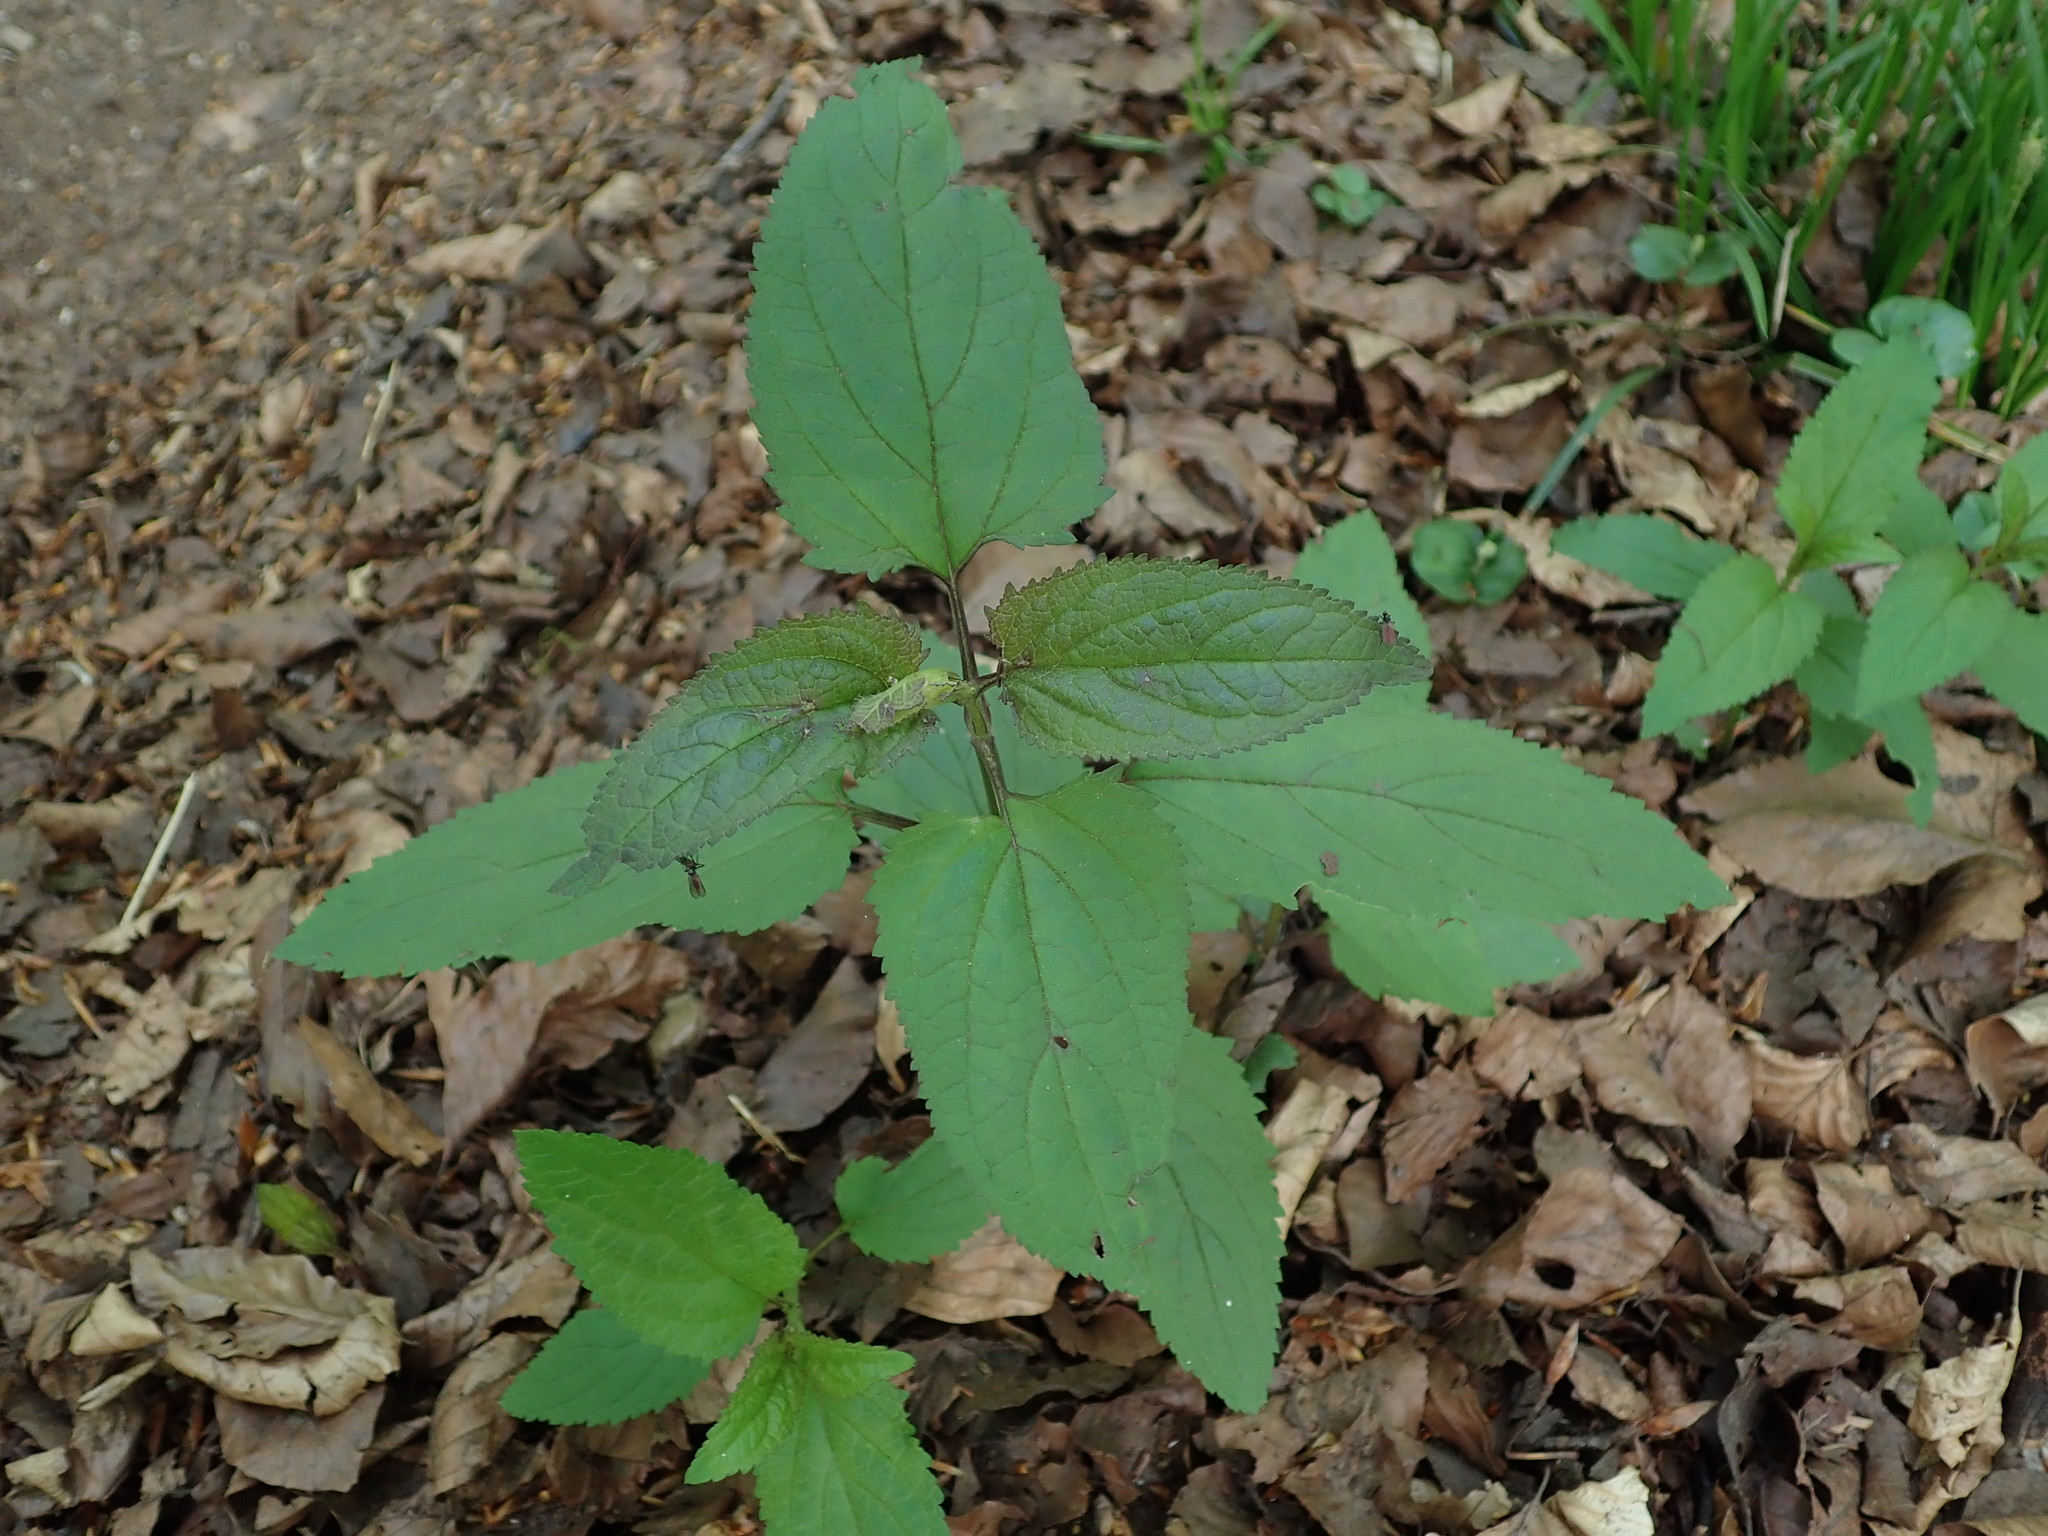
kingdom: Plantae
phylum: Tracheophyta
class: Magnoliopsida
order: Lamiales
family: Scrophulariaceae
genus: Scrophularia
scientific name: Scrophularia nodosa
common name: Common figwort
